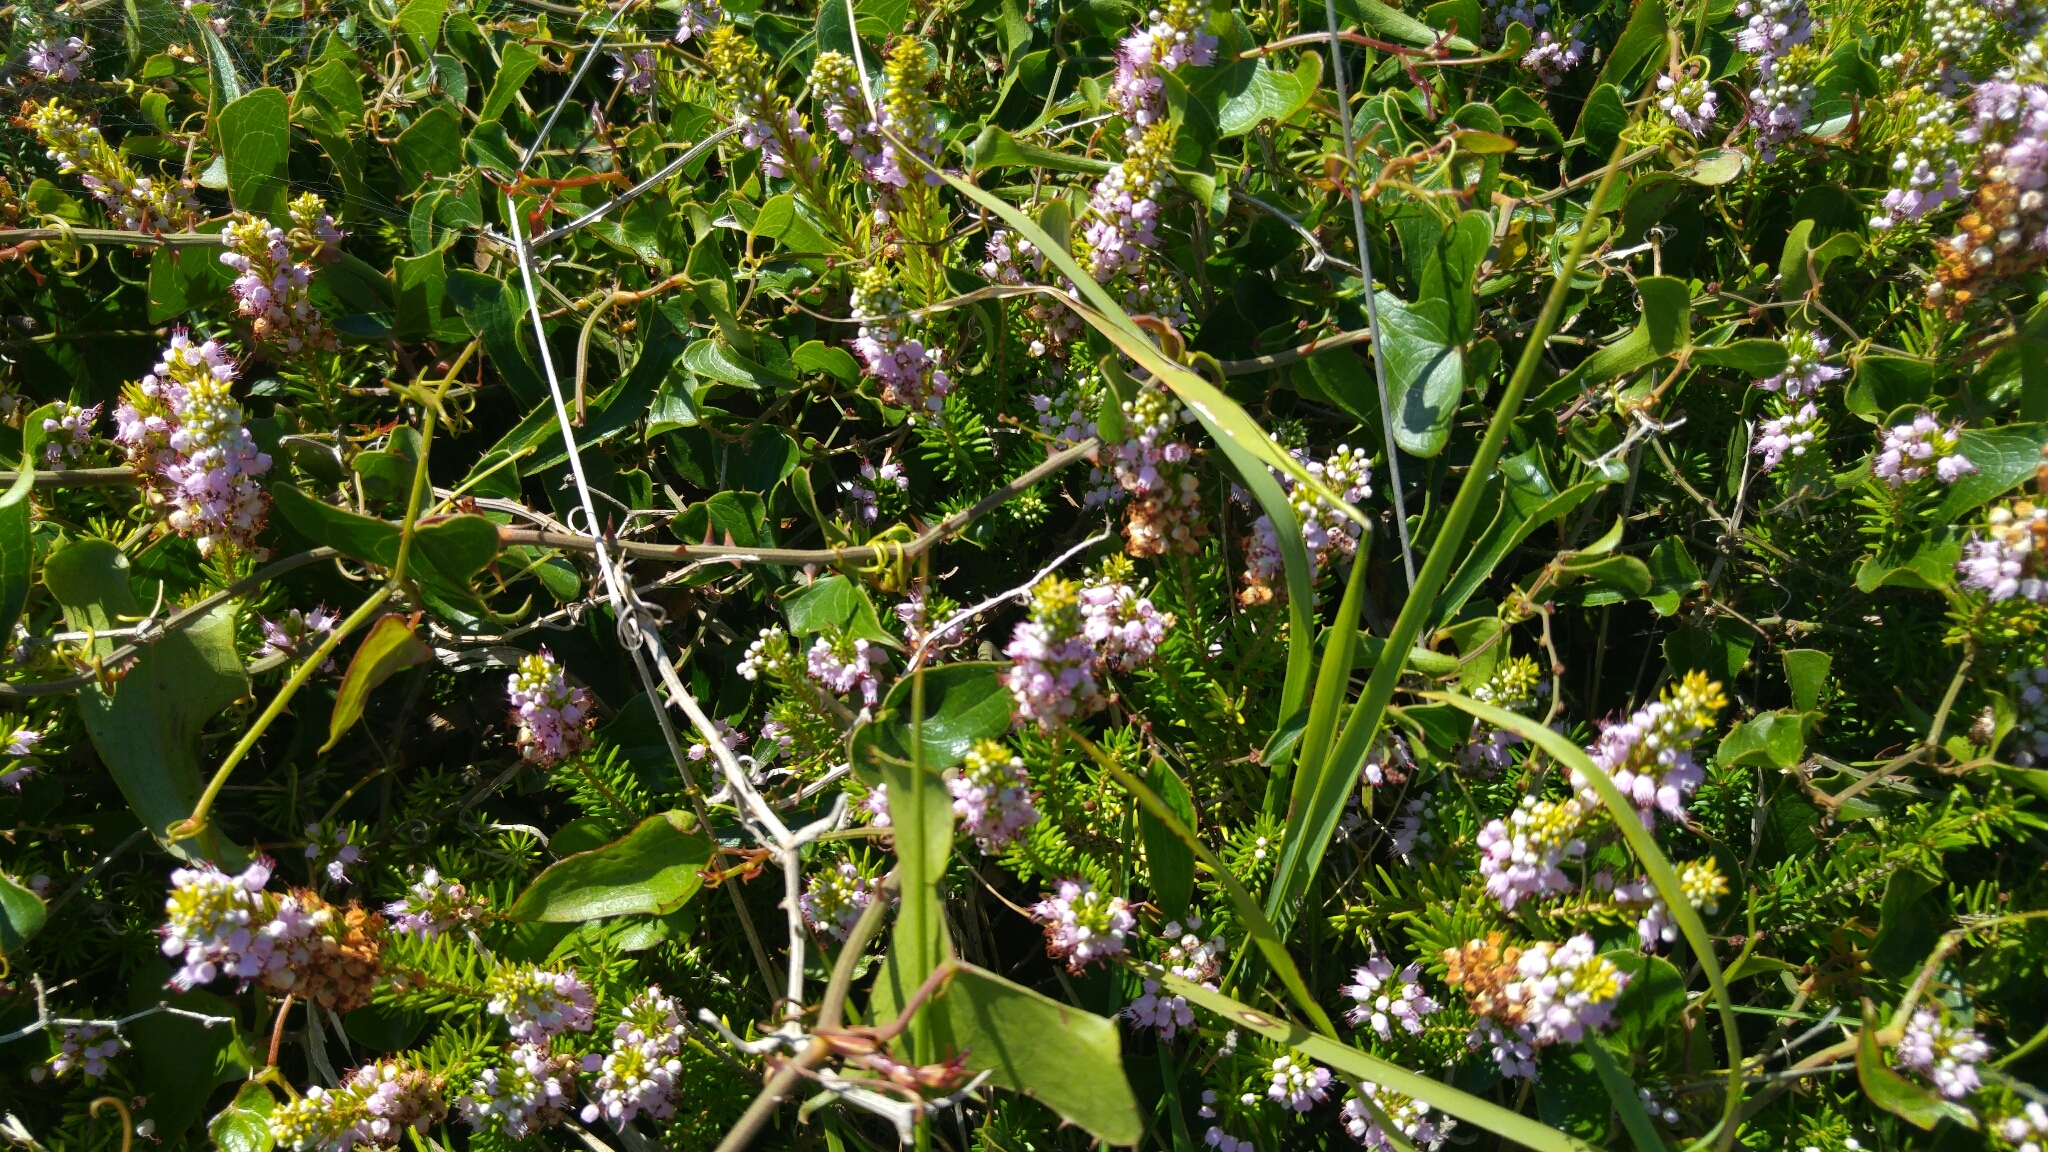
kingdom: Plantae
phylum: Tracheophyta
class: Magnoliopsida
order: Ericales
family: Ericaceae
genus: Erica
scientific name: Erica vagans
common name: Cornish heath
